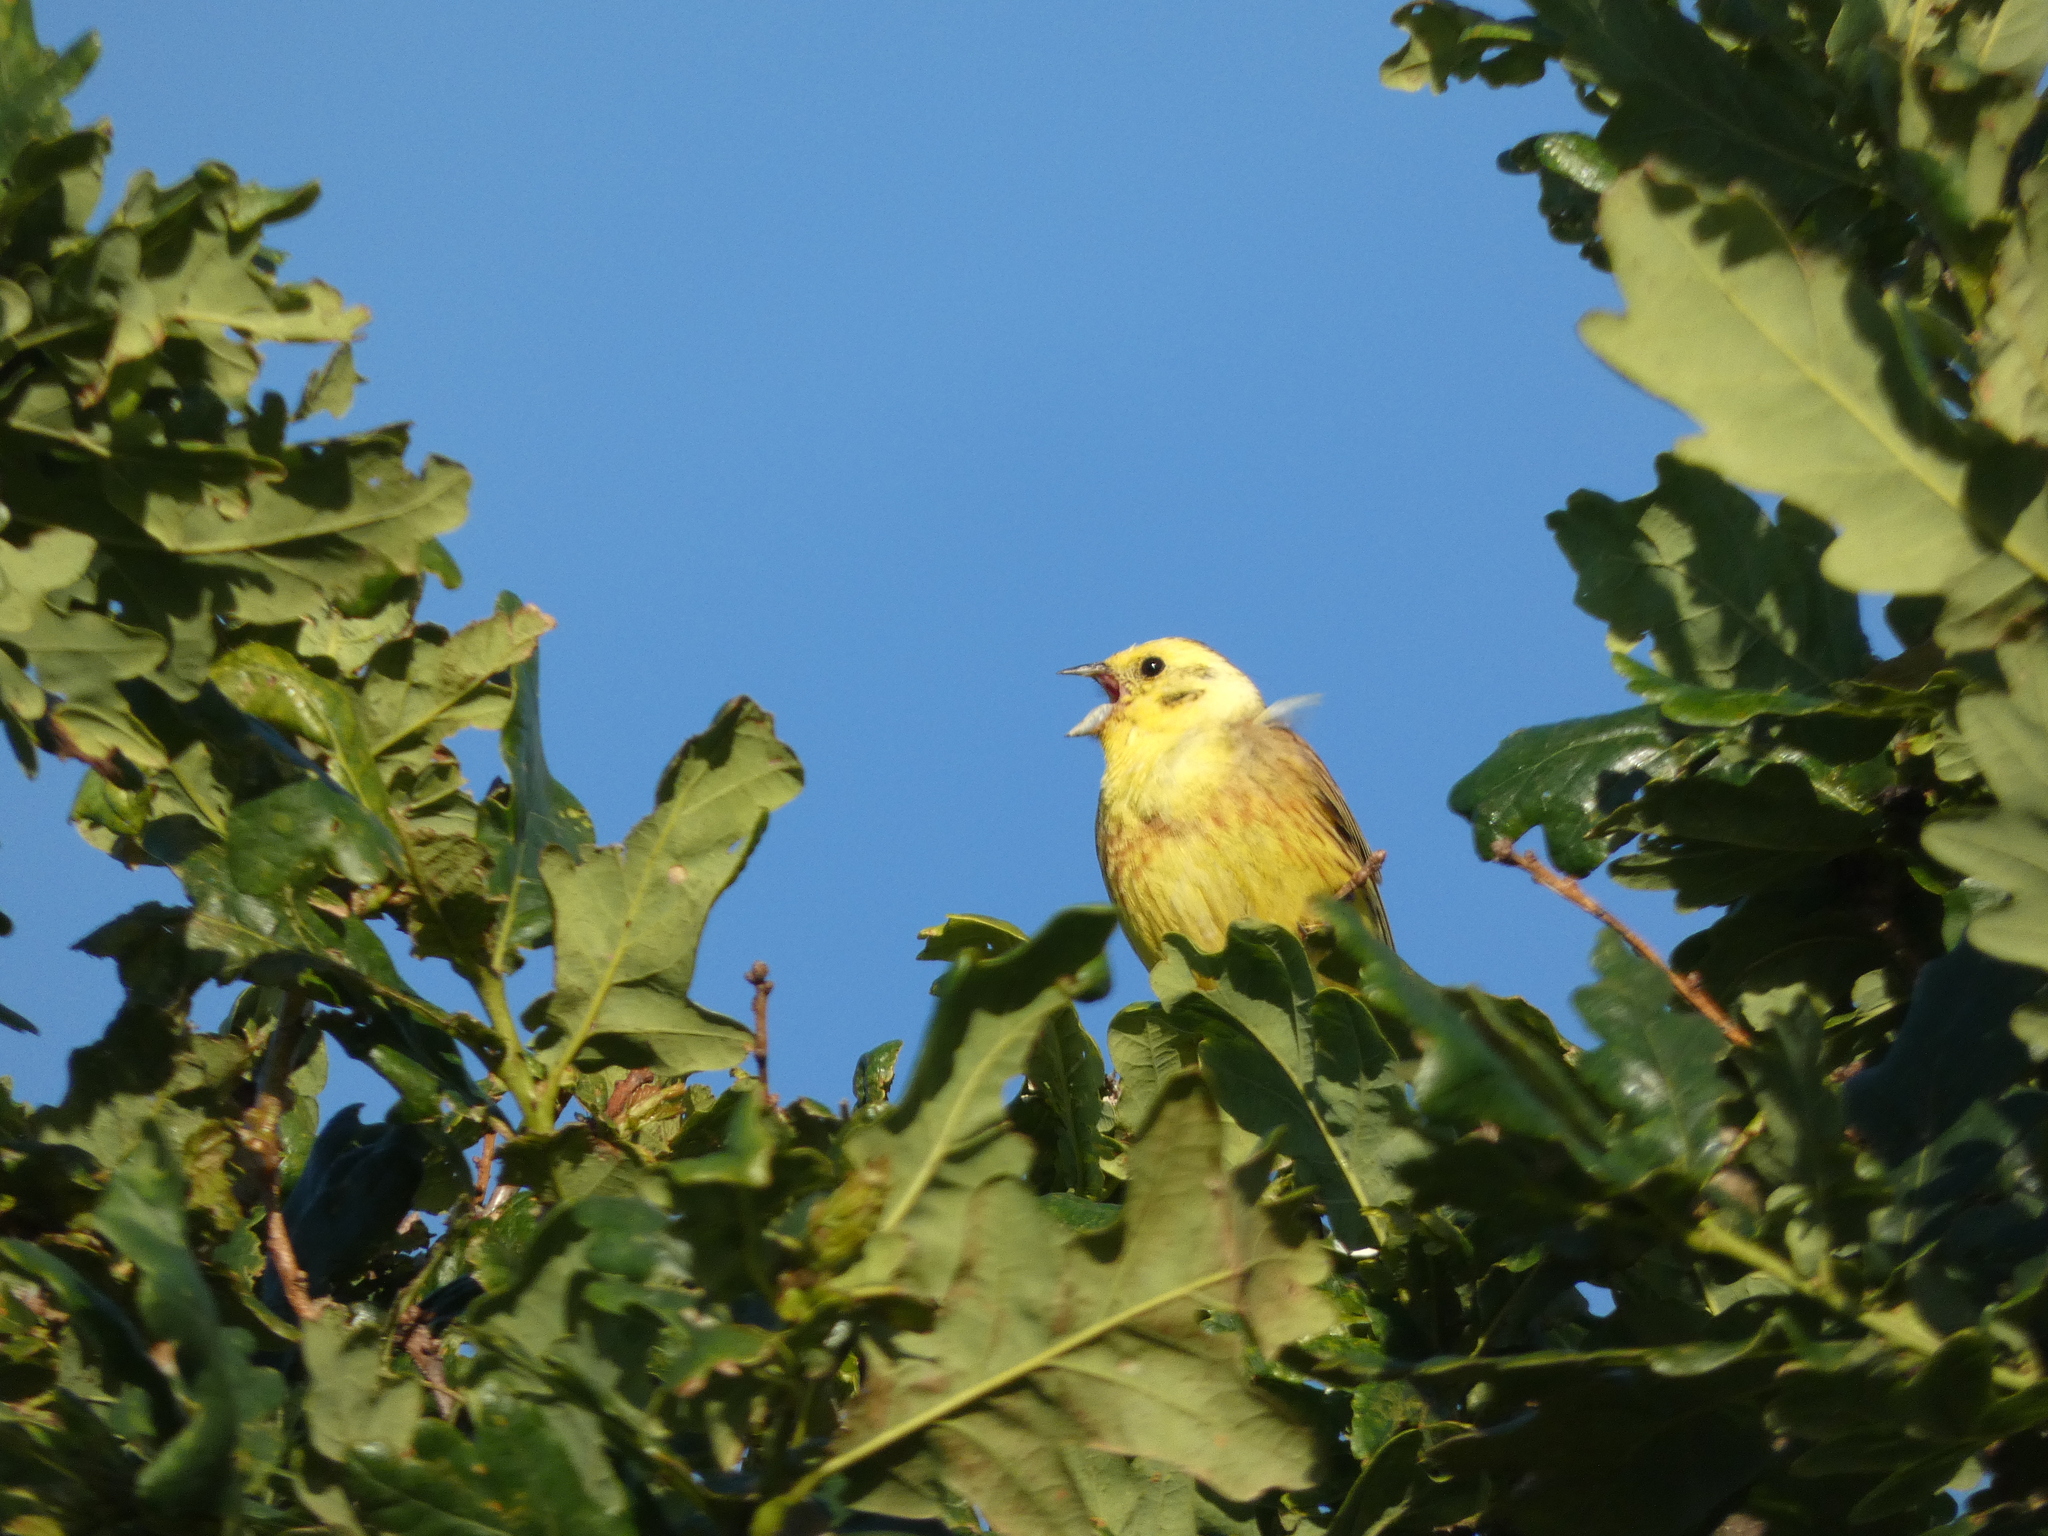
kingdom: Animalia
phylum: Chordata
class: Aves
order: Passeriformes
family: Emberizidae
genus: Emberiza
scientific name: Emberiza citrinella
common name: Yellowhammer
